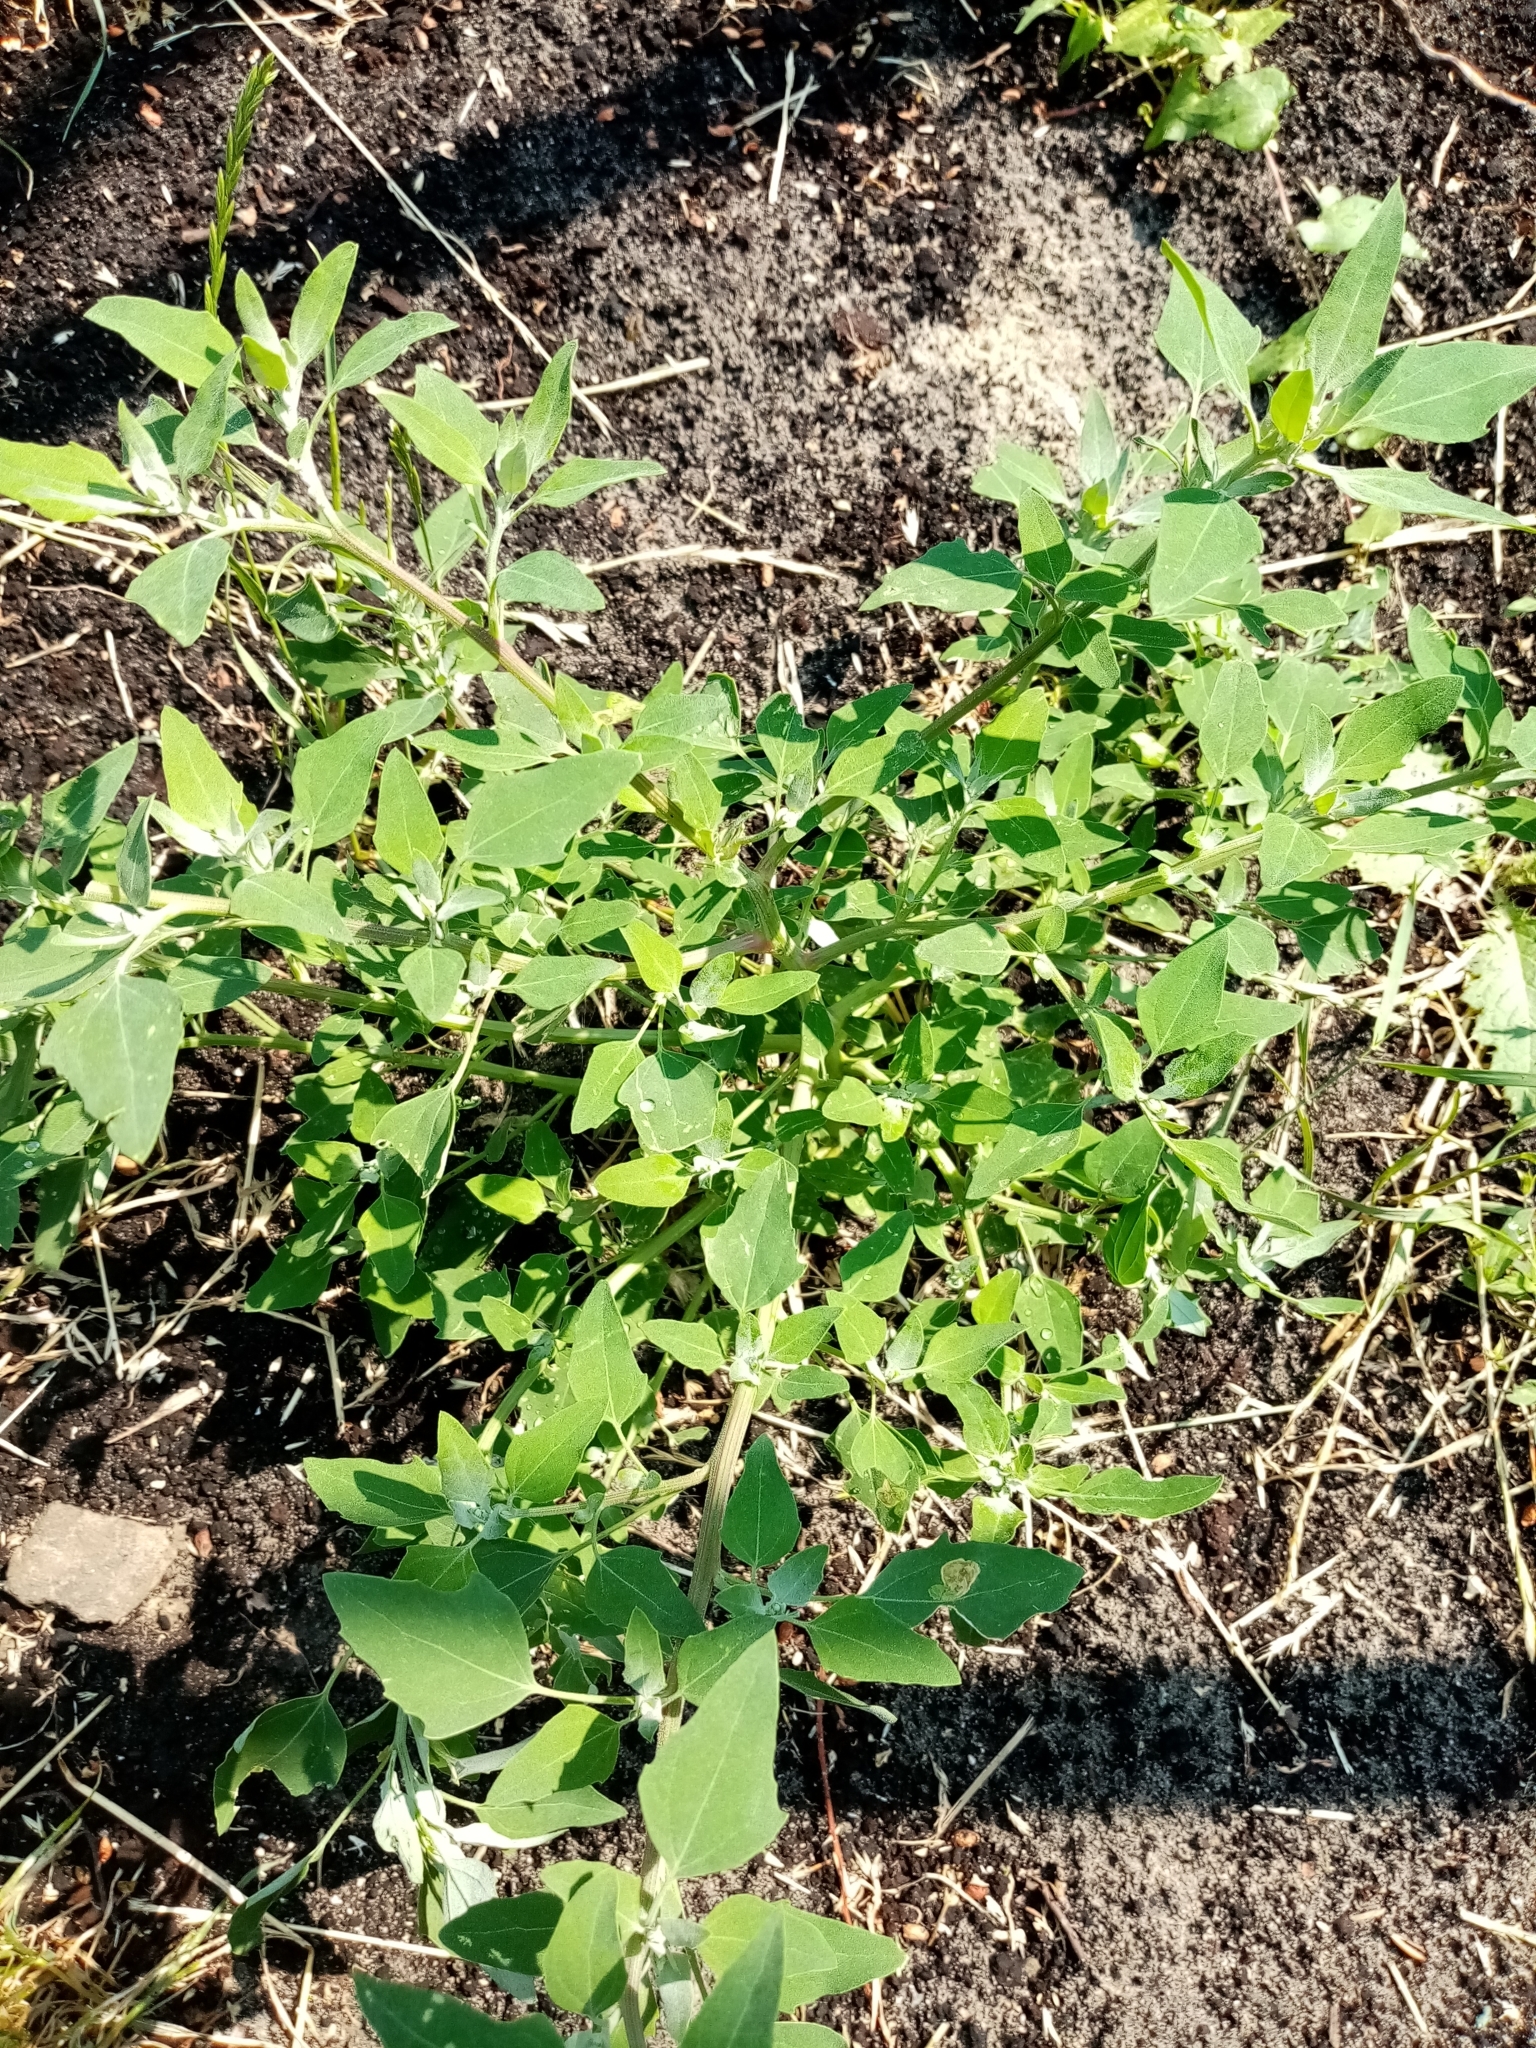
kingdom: Plantae
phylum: Tracheophyta
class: Magnoliopsida
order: Caryophyllales
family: Amaranthaceae
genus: Chenopodium
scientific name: Chenopodium album
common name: Fat-hen
